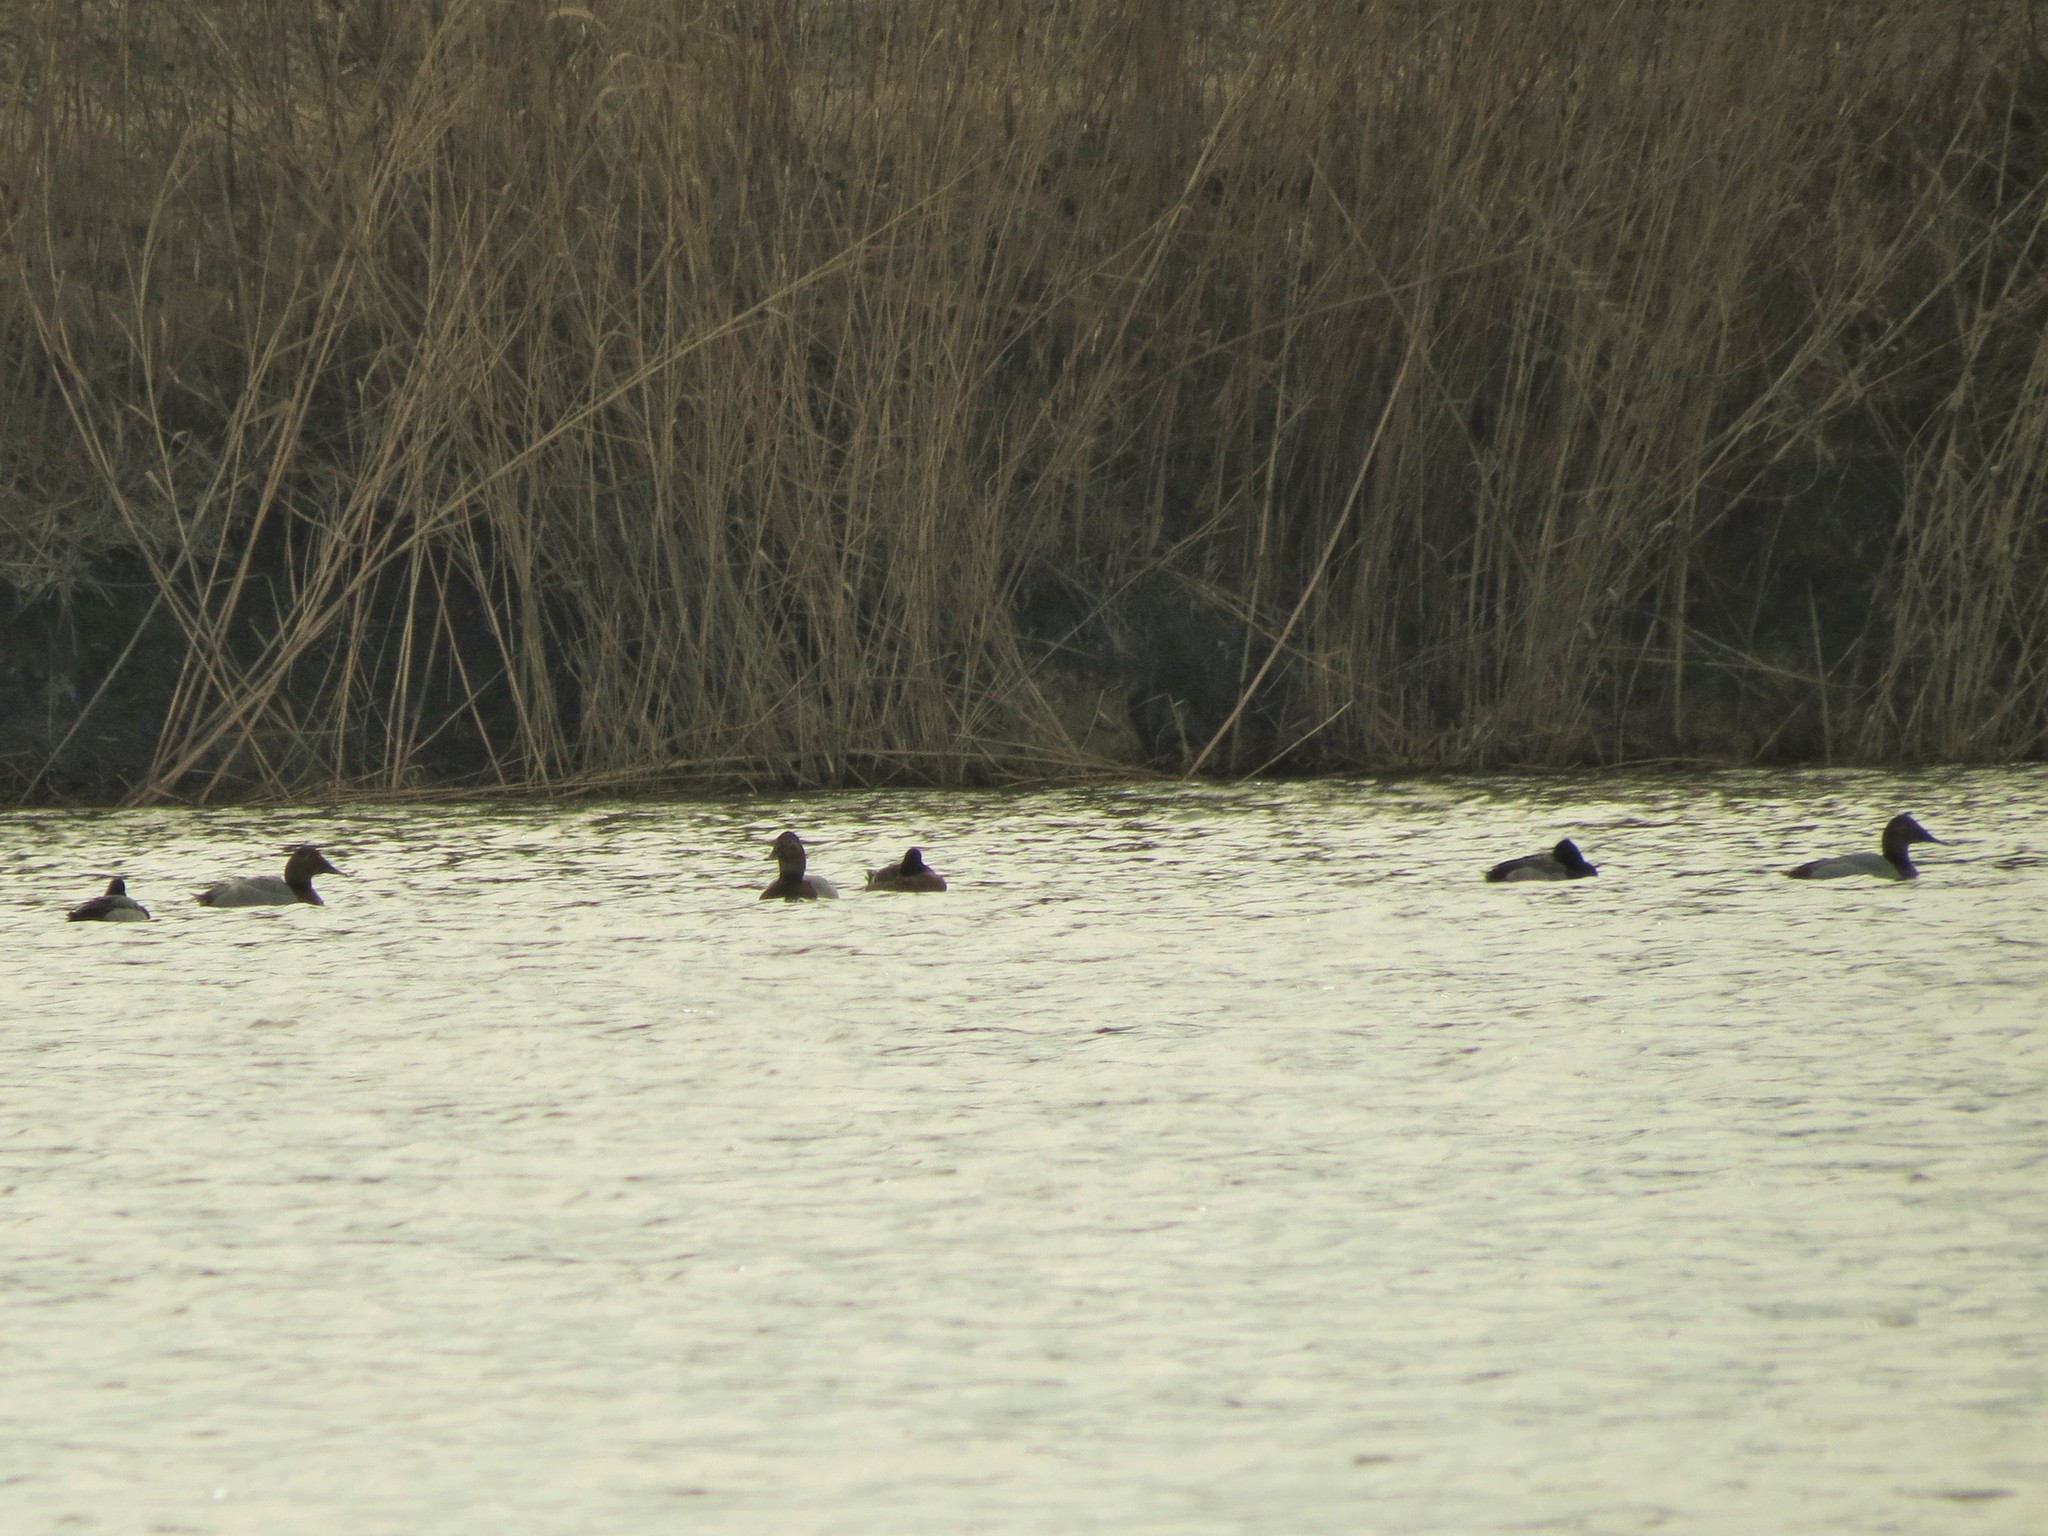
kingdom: Animalia
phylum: Chordata
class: Aves
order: Anseriformes
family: Anatidae
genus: Aythya
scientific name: Aythya valisineria
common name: Canvasback
